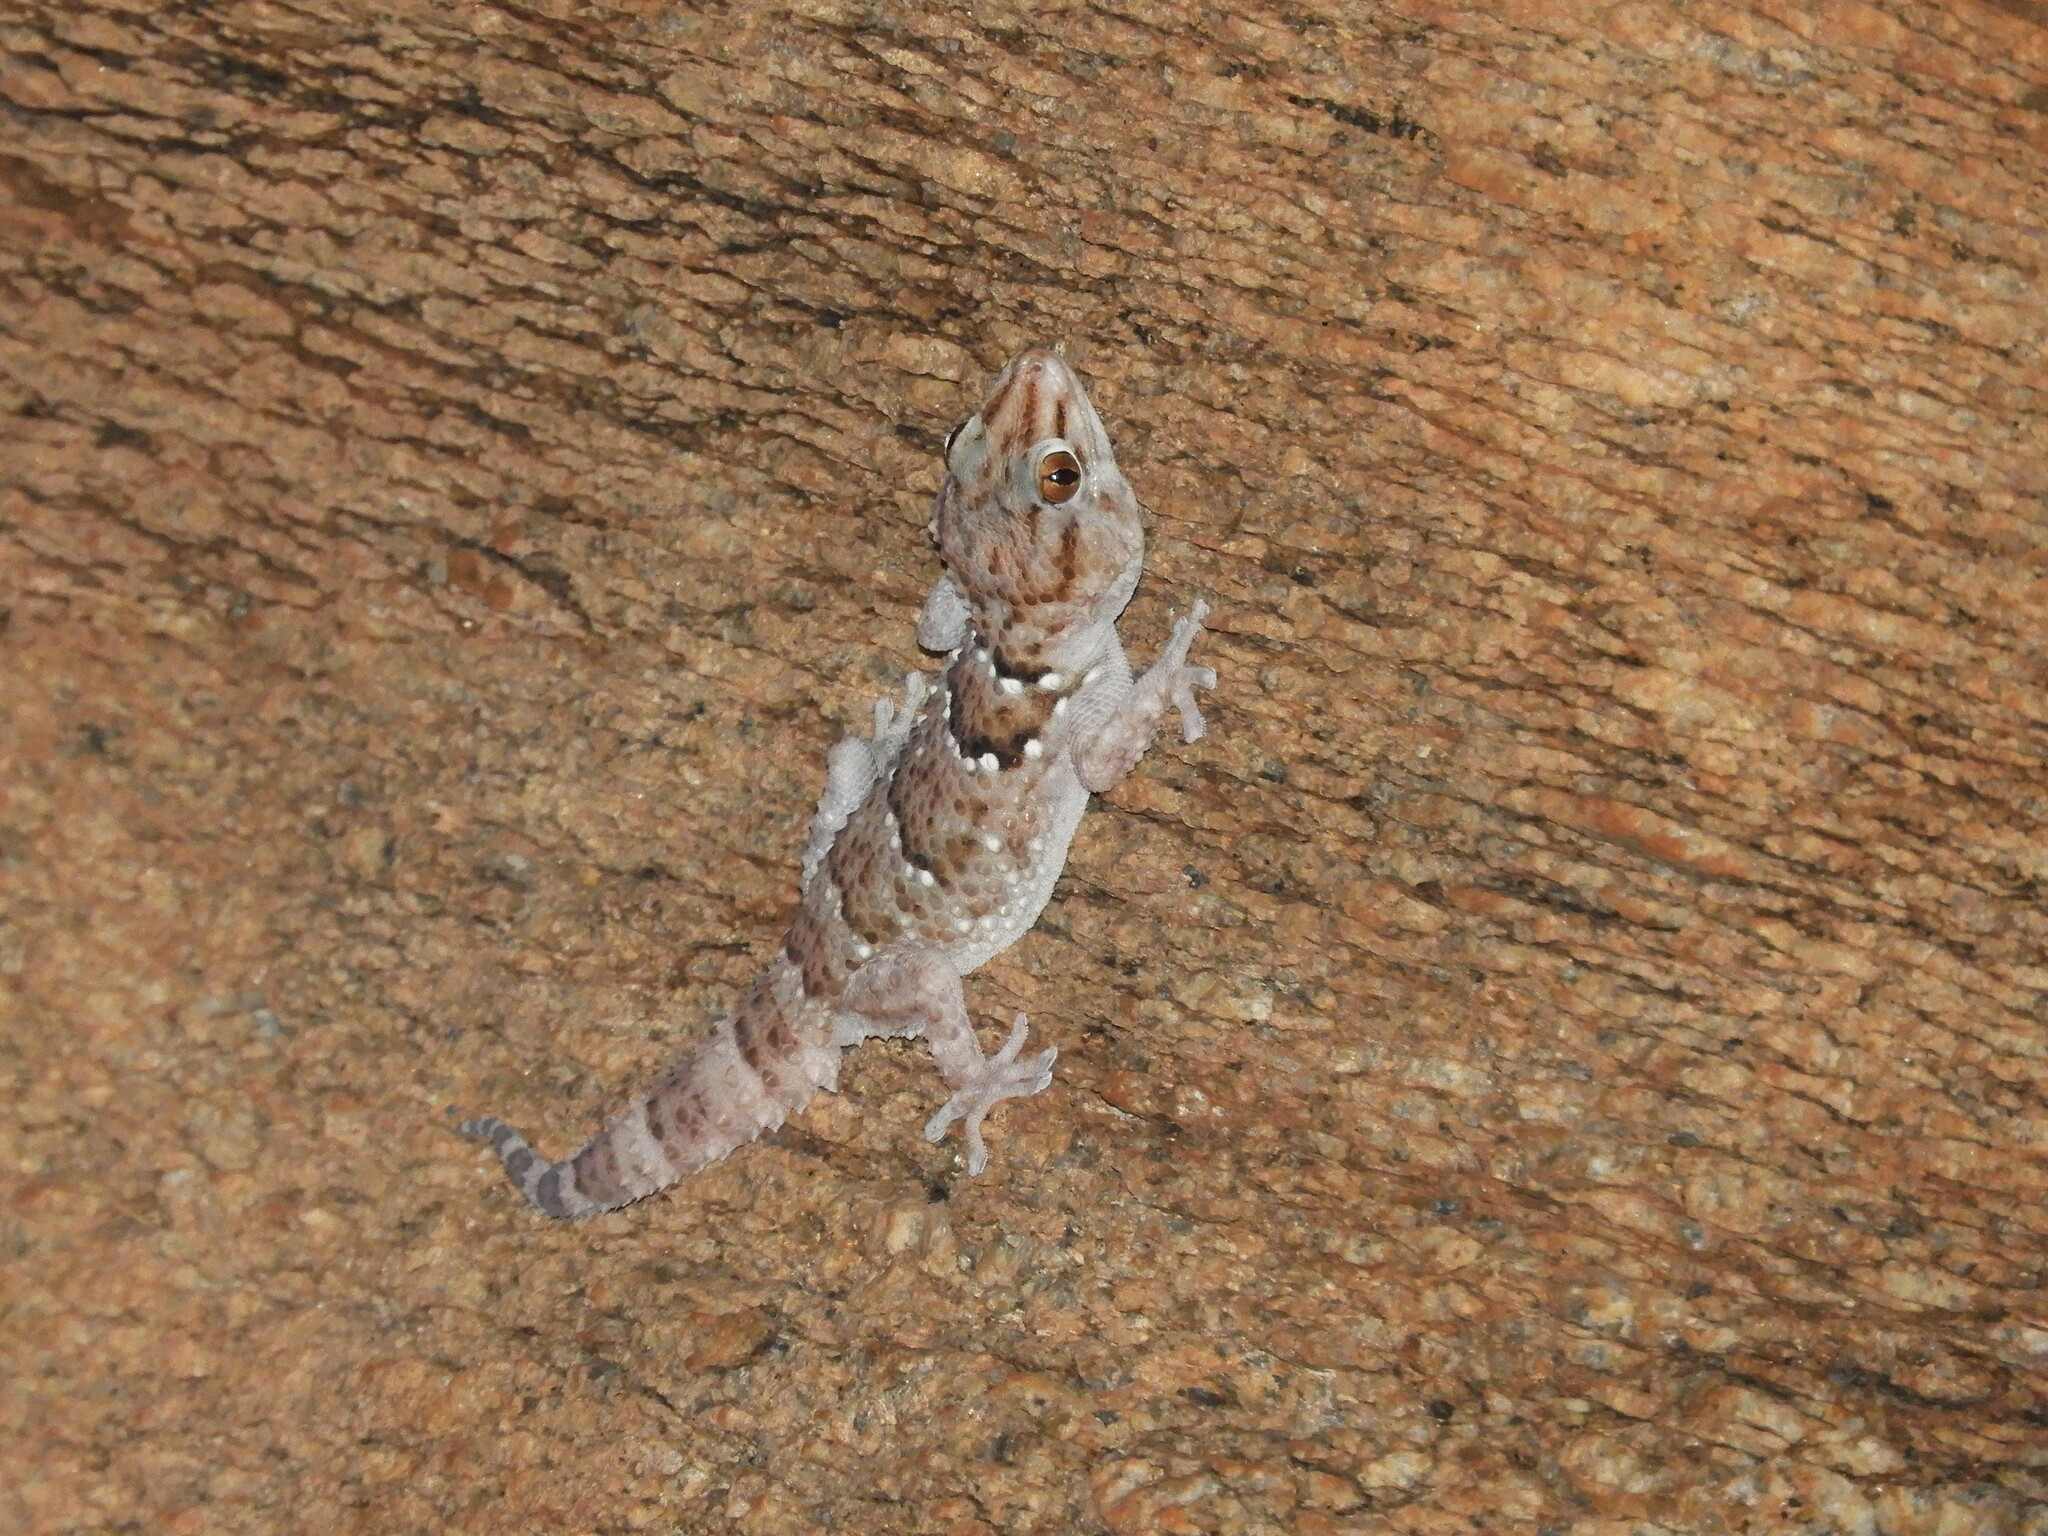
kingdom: Animalia
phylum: Chordata
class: Squamata
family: Gekkonidae
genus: Chondrodactylus
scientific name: Chondrodactylus laevigatus
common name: Fischer's thick-toed gecko
